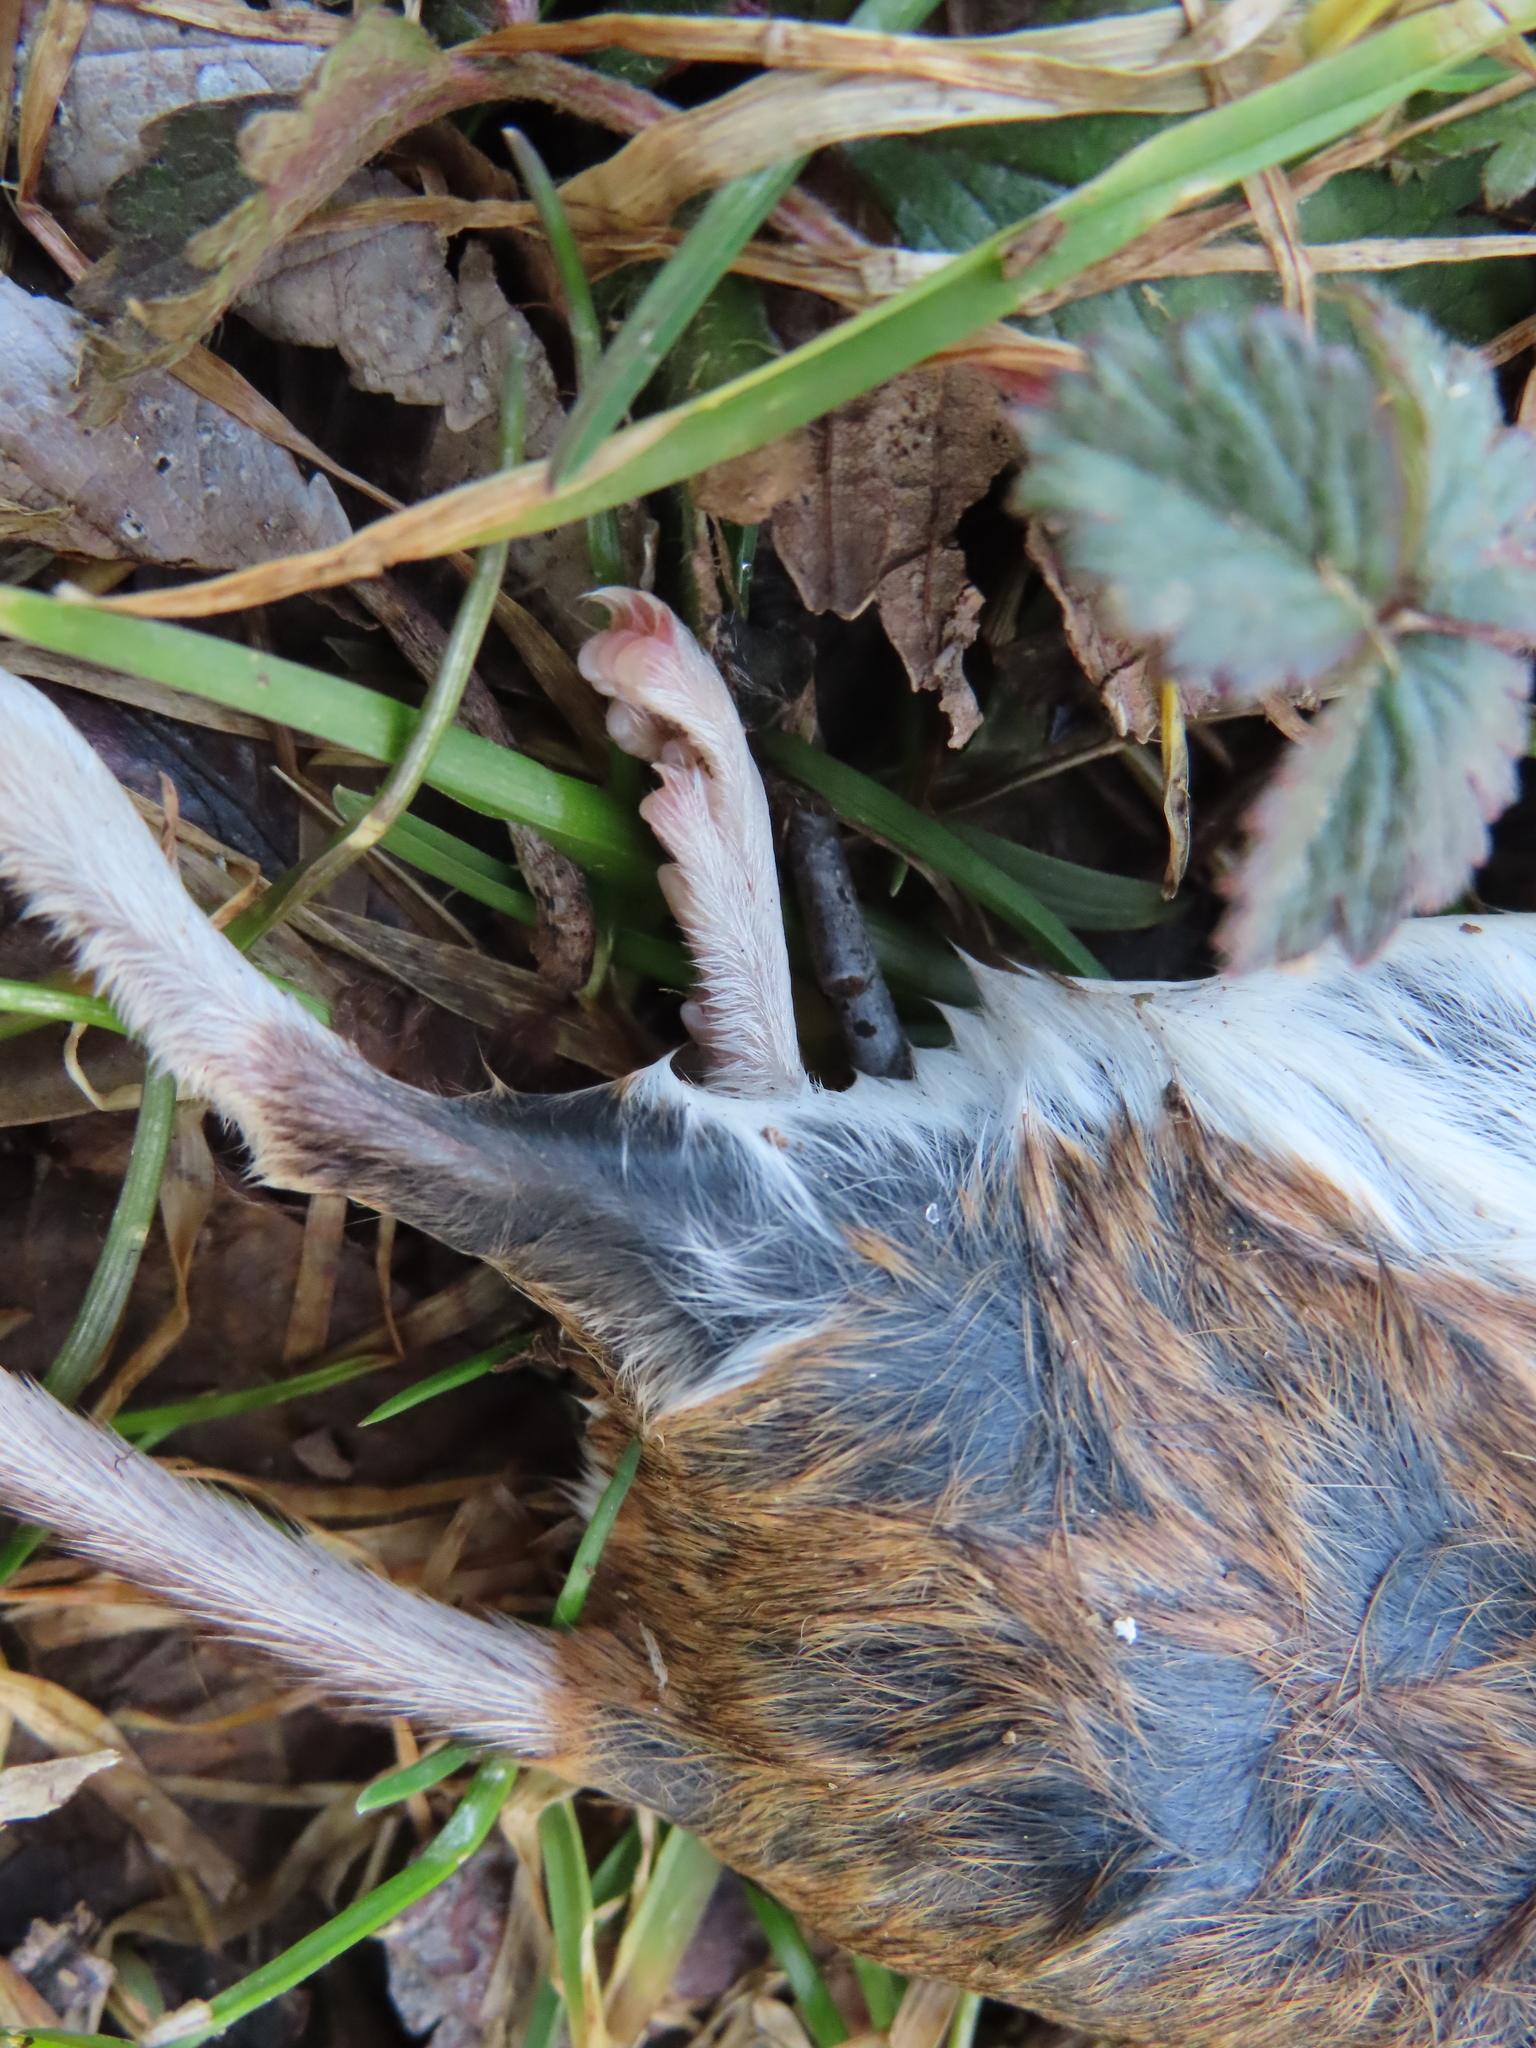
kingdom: Animalia
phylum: Chordata
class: Mammalia
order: Rodentia
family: Cricetidae
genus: Peromyscus
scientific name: Peromyscus leucopus
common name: White-footed deermouse
